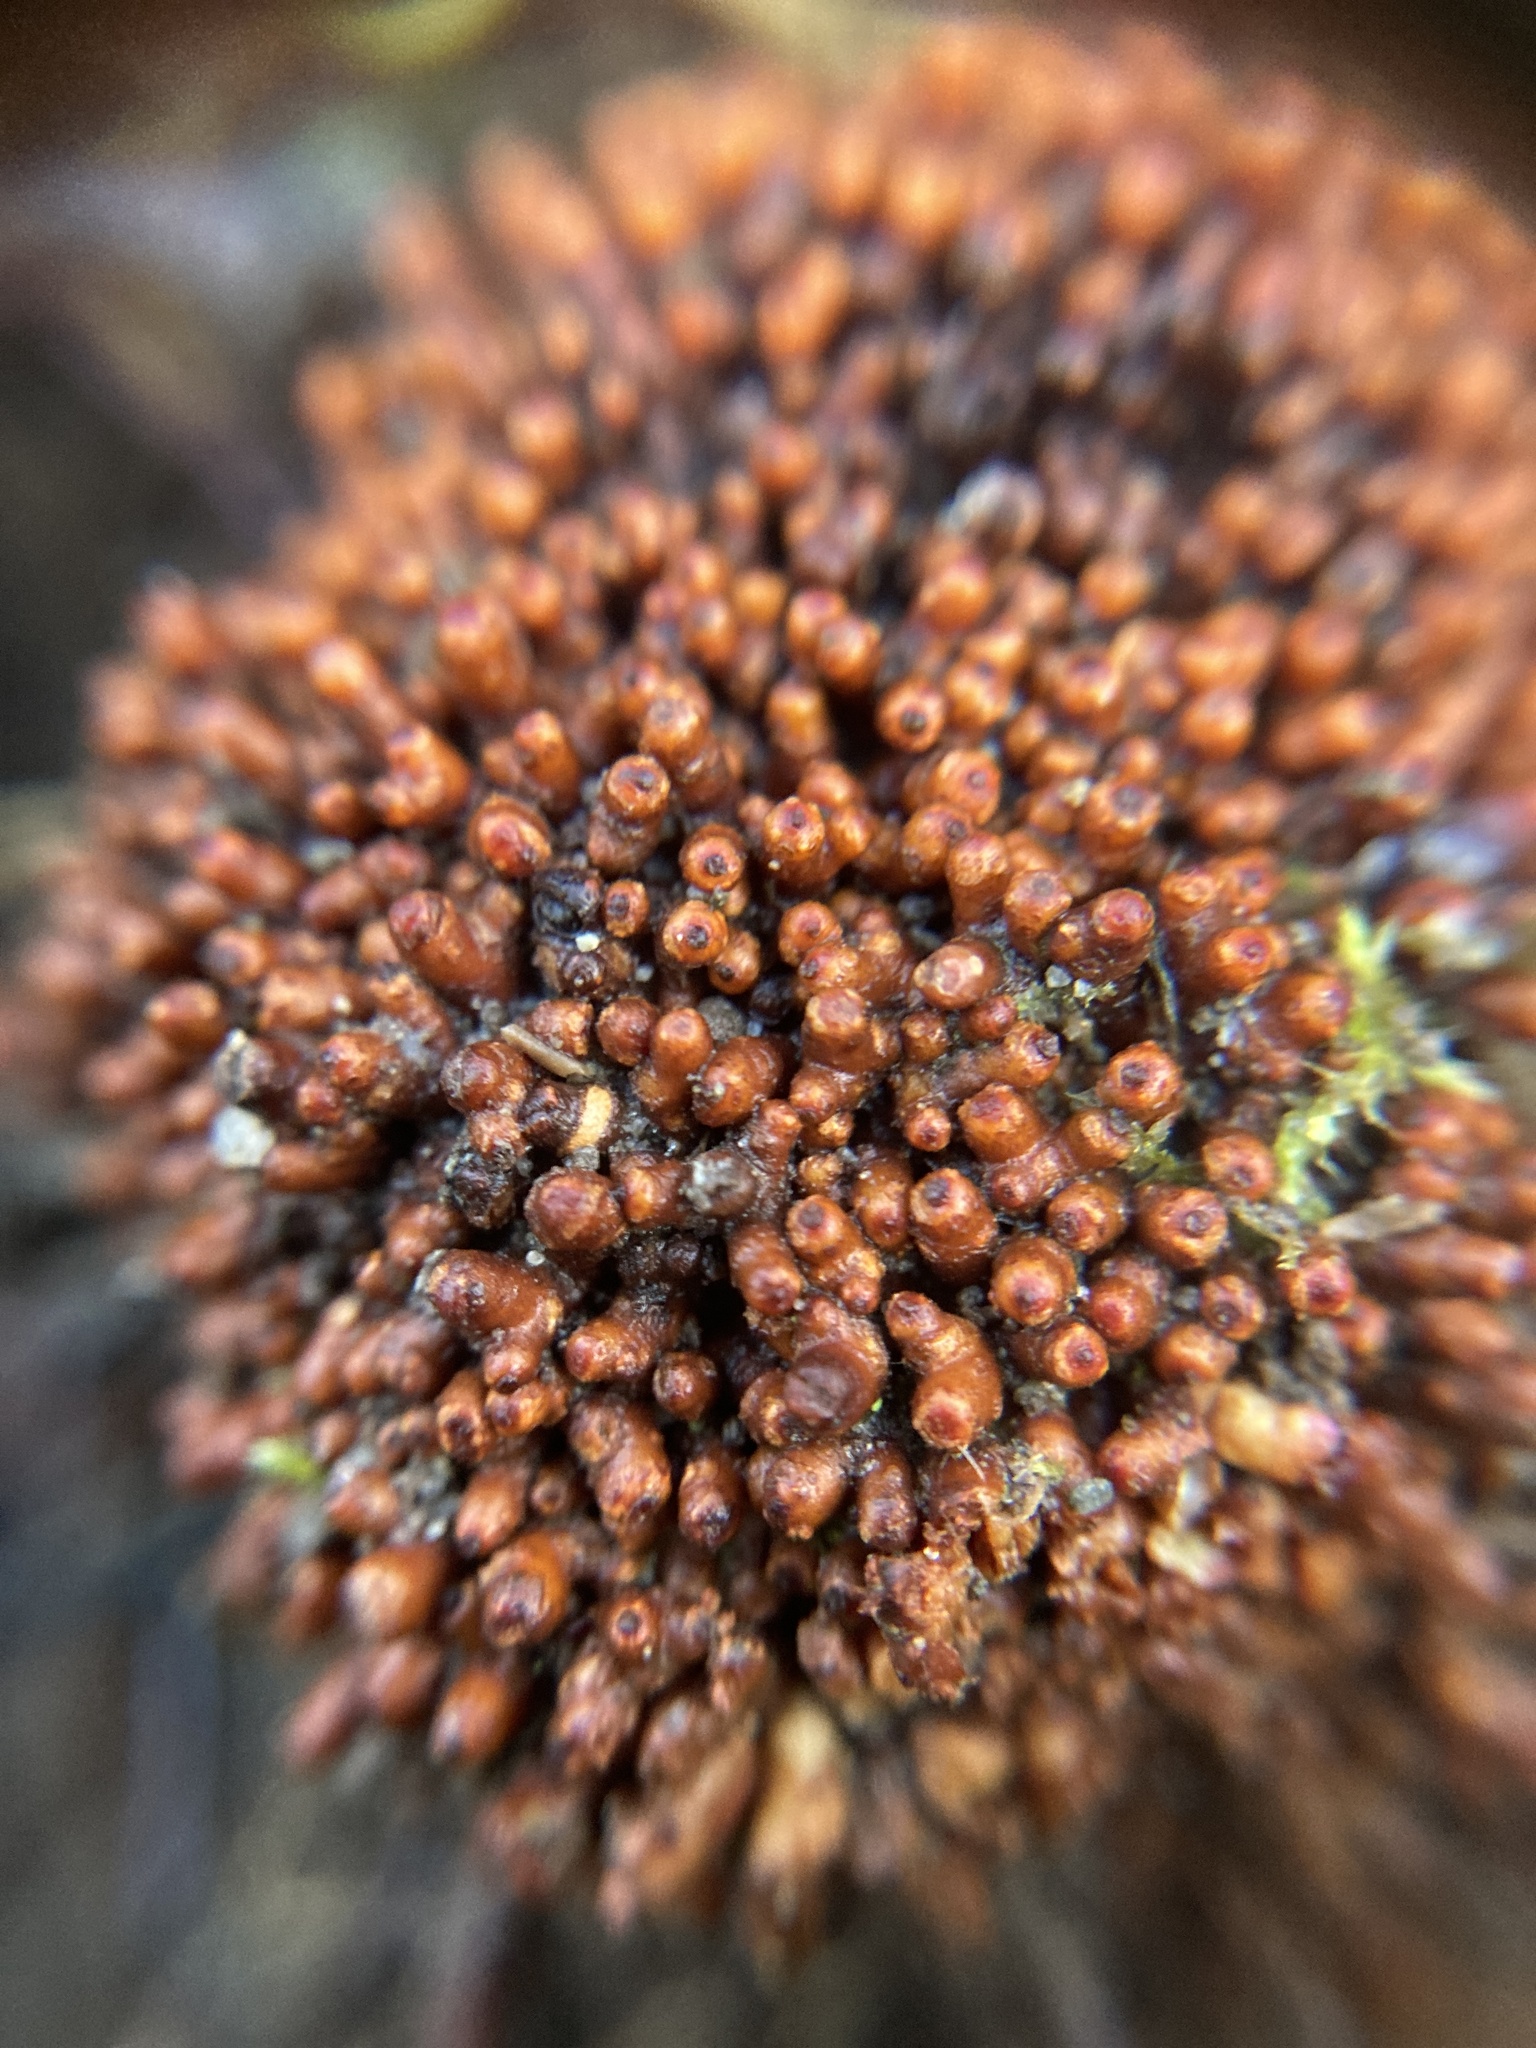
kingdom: Bacteria
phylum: Actinobacteriota
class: Actinomycetia
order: Mycobacteriales
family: Frankiaceae
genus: Frankia
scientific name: Frankia alni
